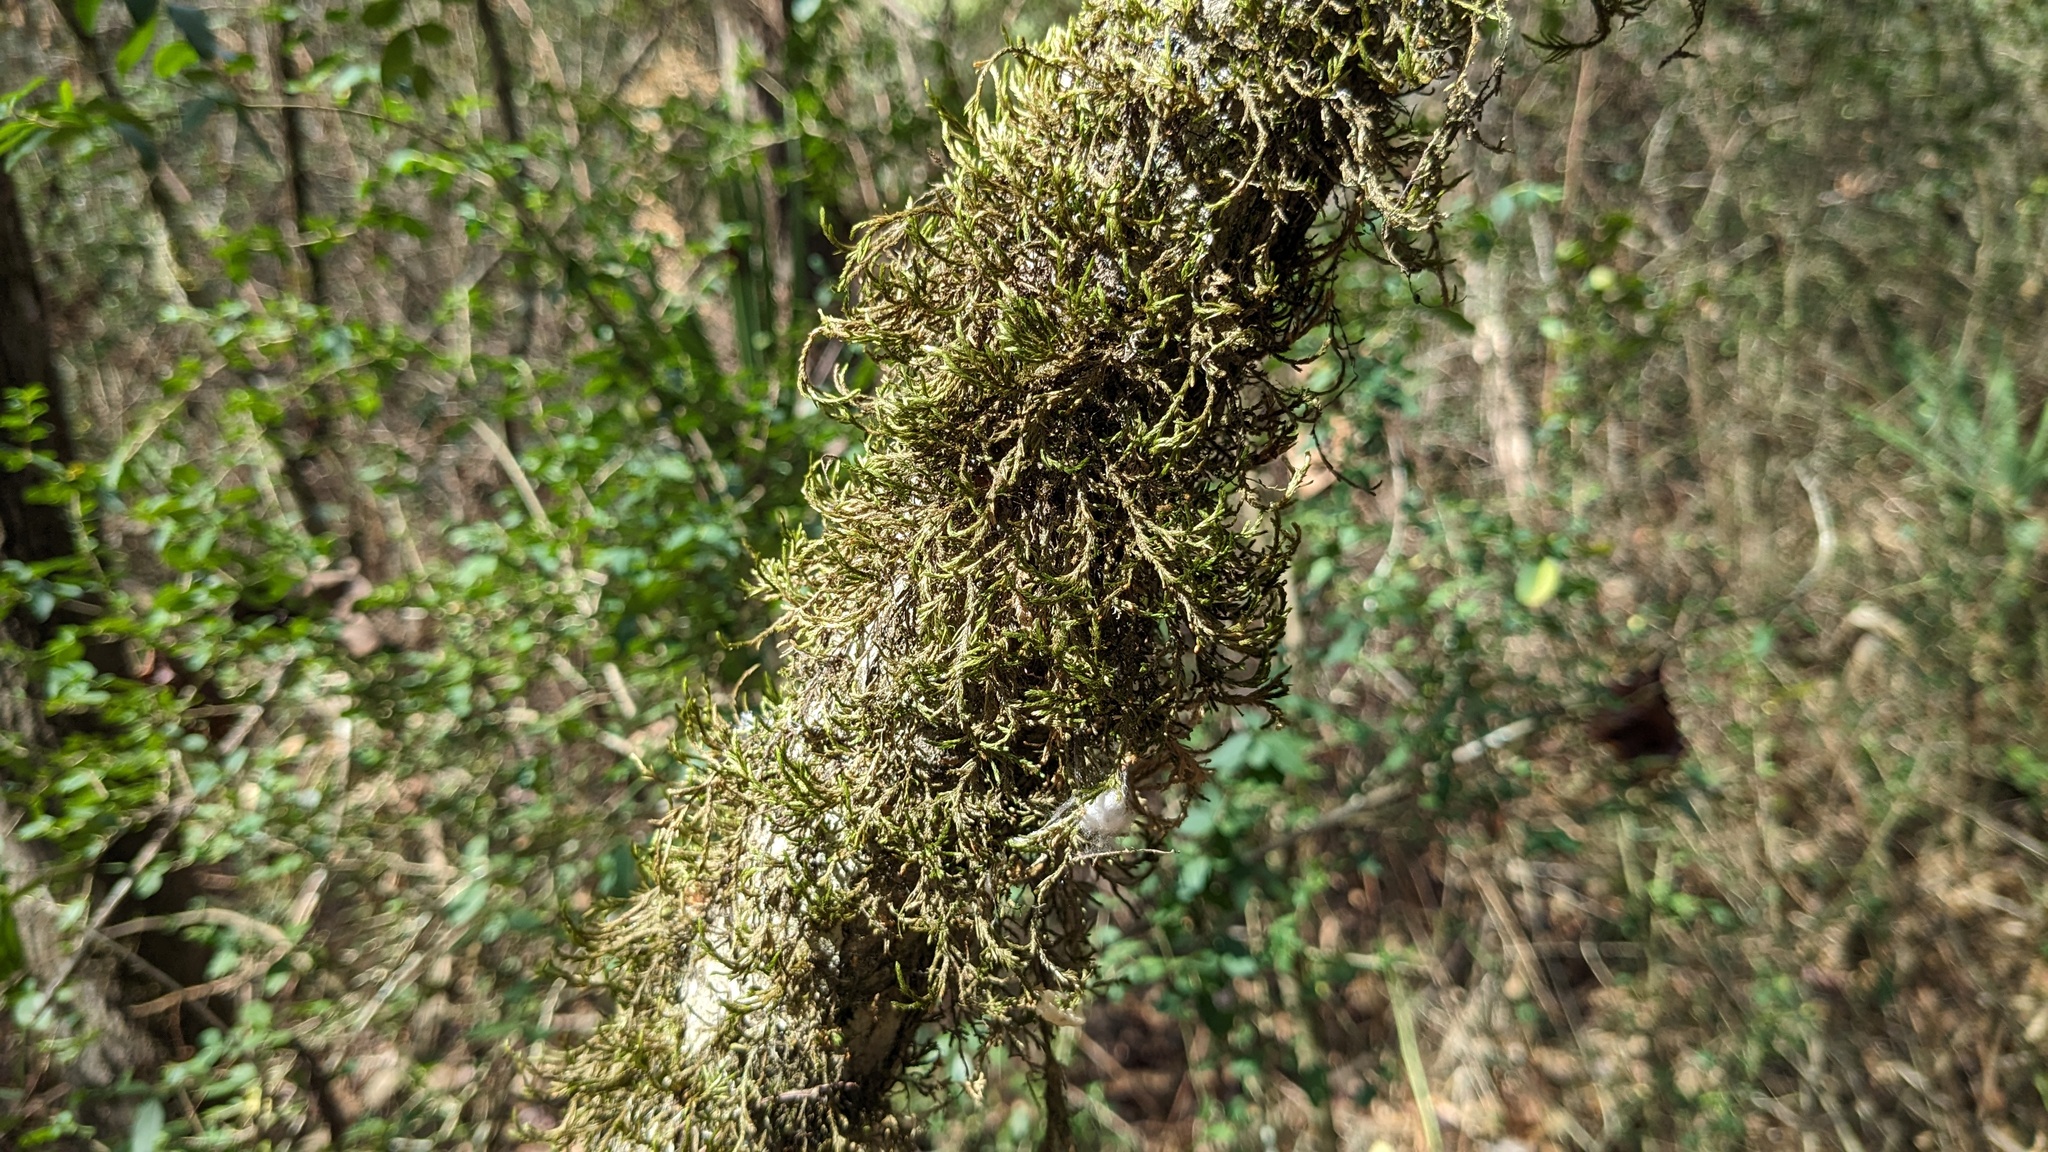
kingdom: Plantae
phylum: Bryophyta
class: Bryopsida
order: Hypnales
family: Neckeraceae
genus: Forsstroemia
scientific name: Forsstroemia trichomitria
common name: Fan moss
